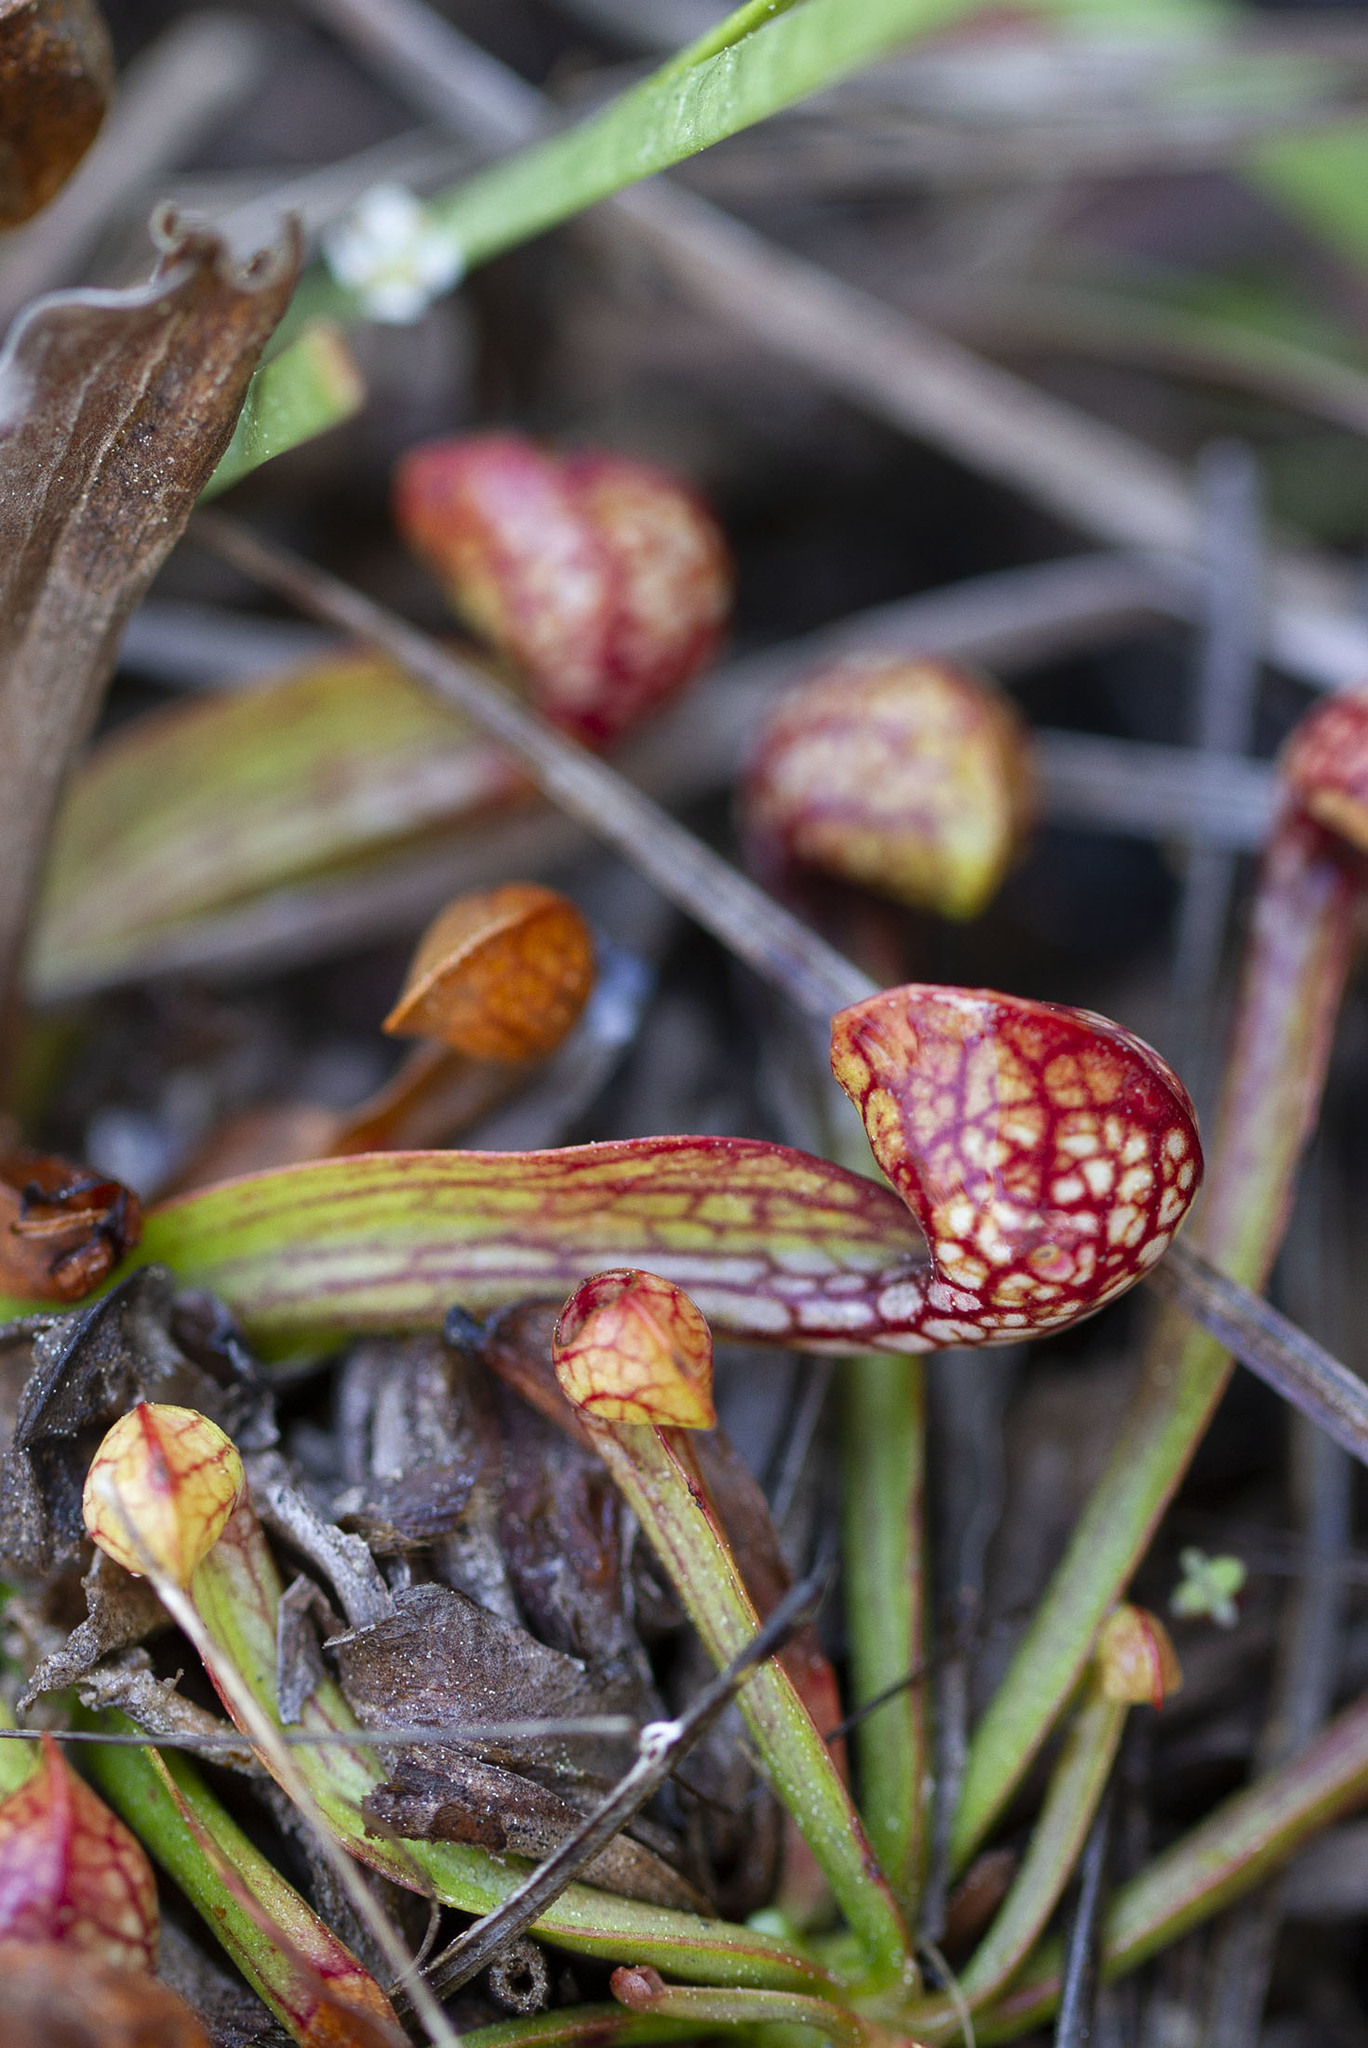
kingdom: Plantae
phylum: Tracheophyta
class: Magnoliopsida
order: Ericales
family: Sarraceniaceae
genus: Sarracenia
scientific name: Sarracenia psittacina
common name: Parrot pitcherplant
